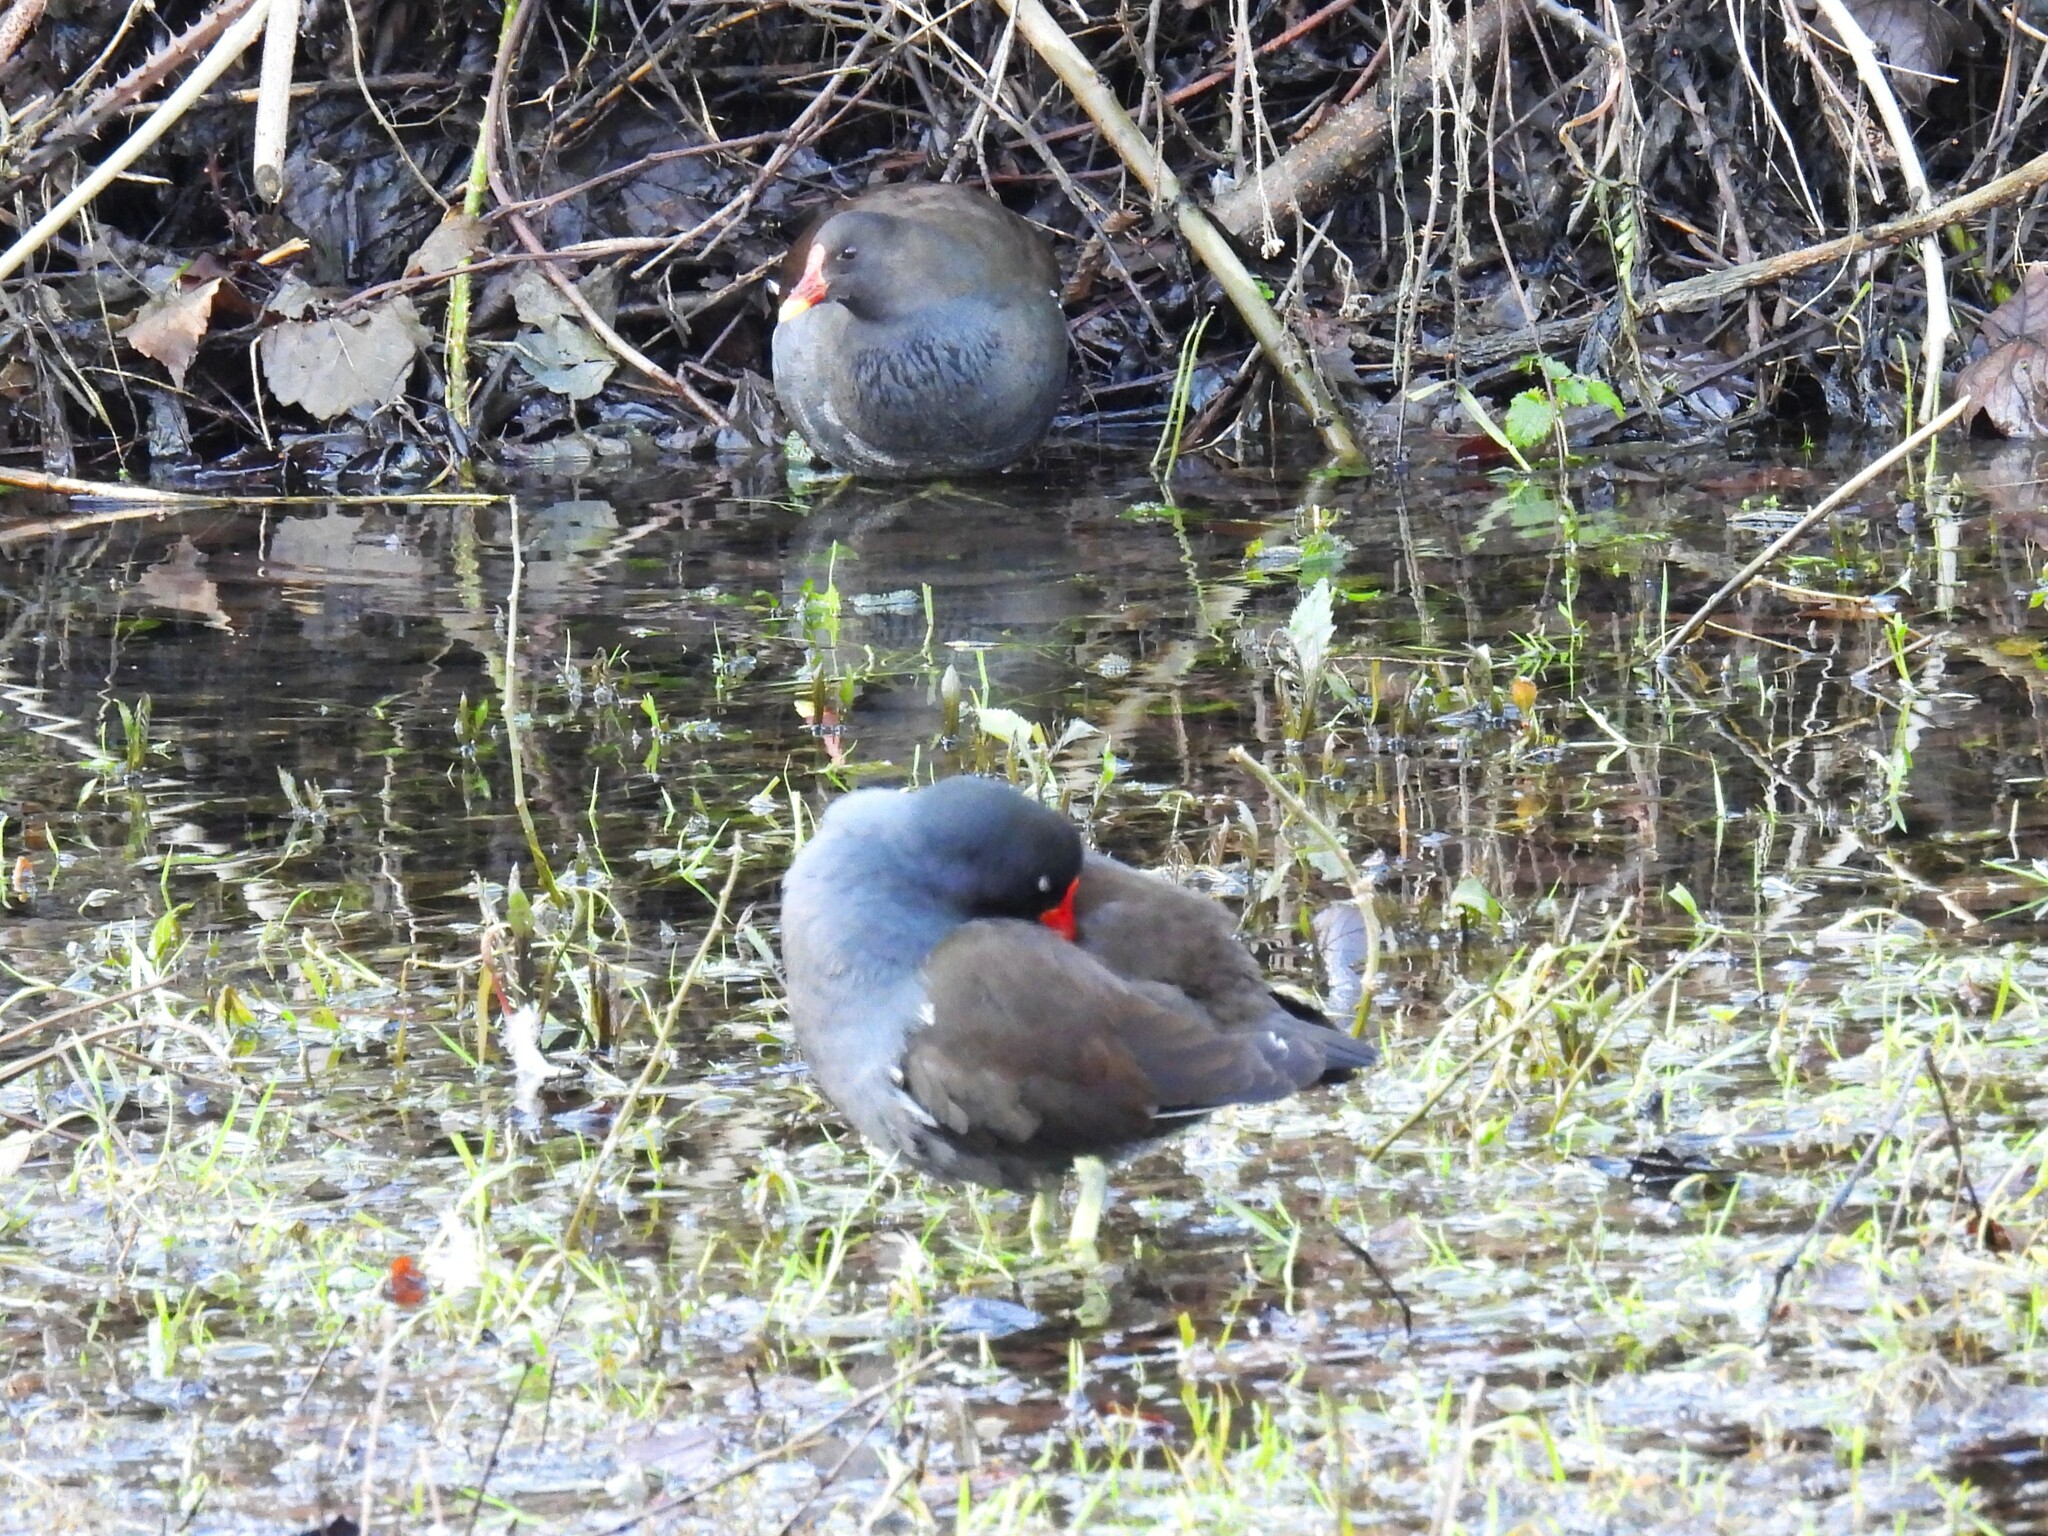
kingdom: Animalia
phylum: Chordata
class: Aves
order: Gruiformes
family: Rallidae
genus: Gallinula
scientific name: Gallinula chloropus
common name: Common moorhen
